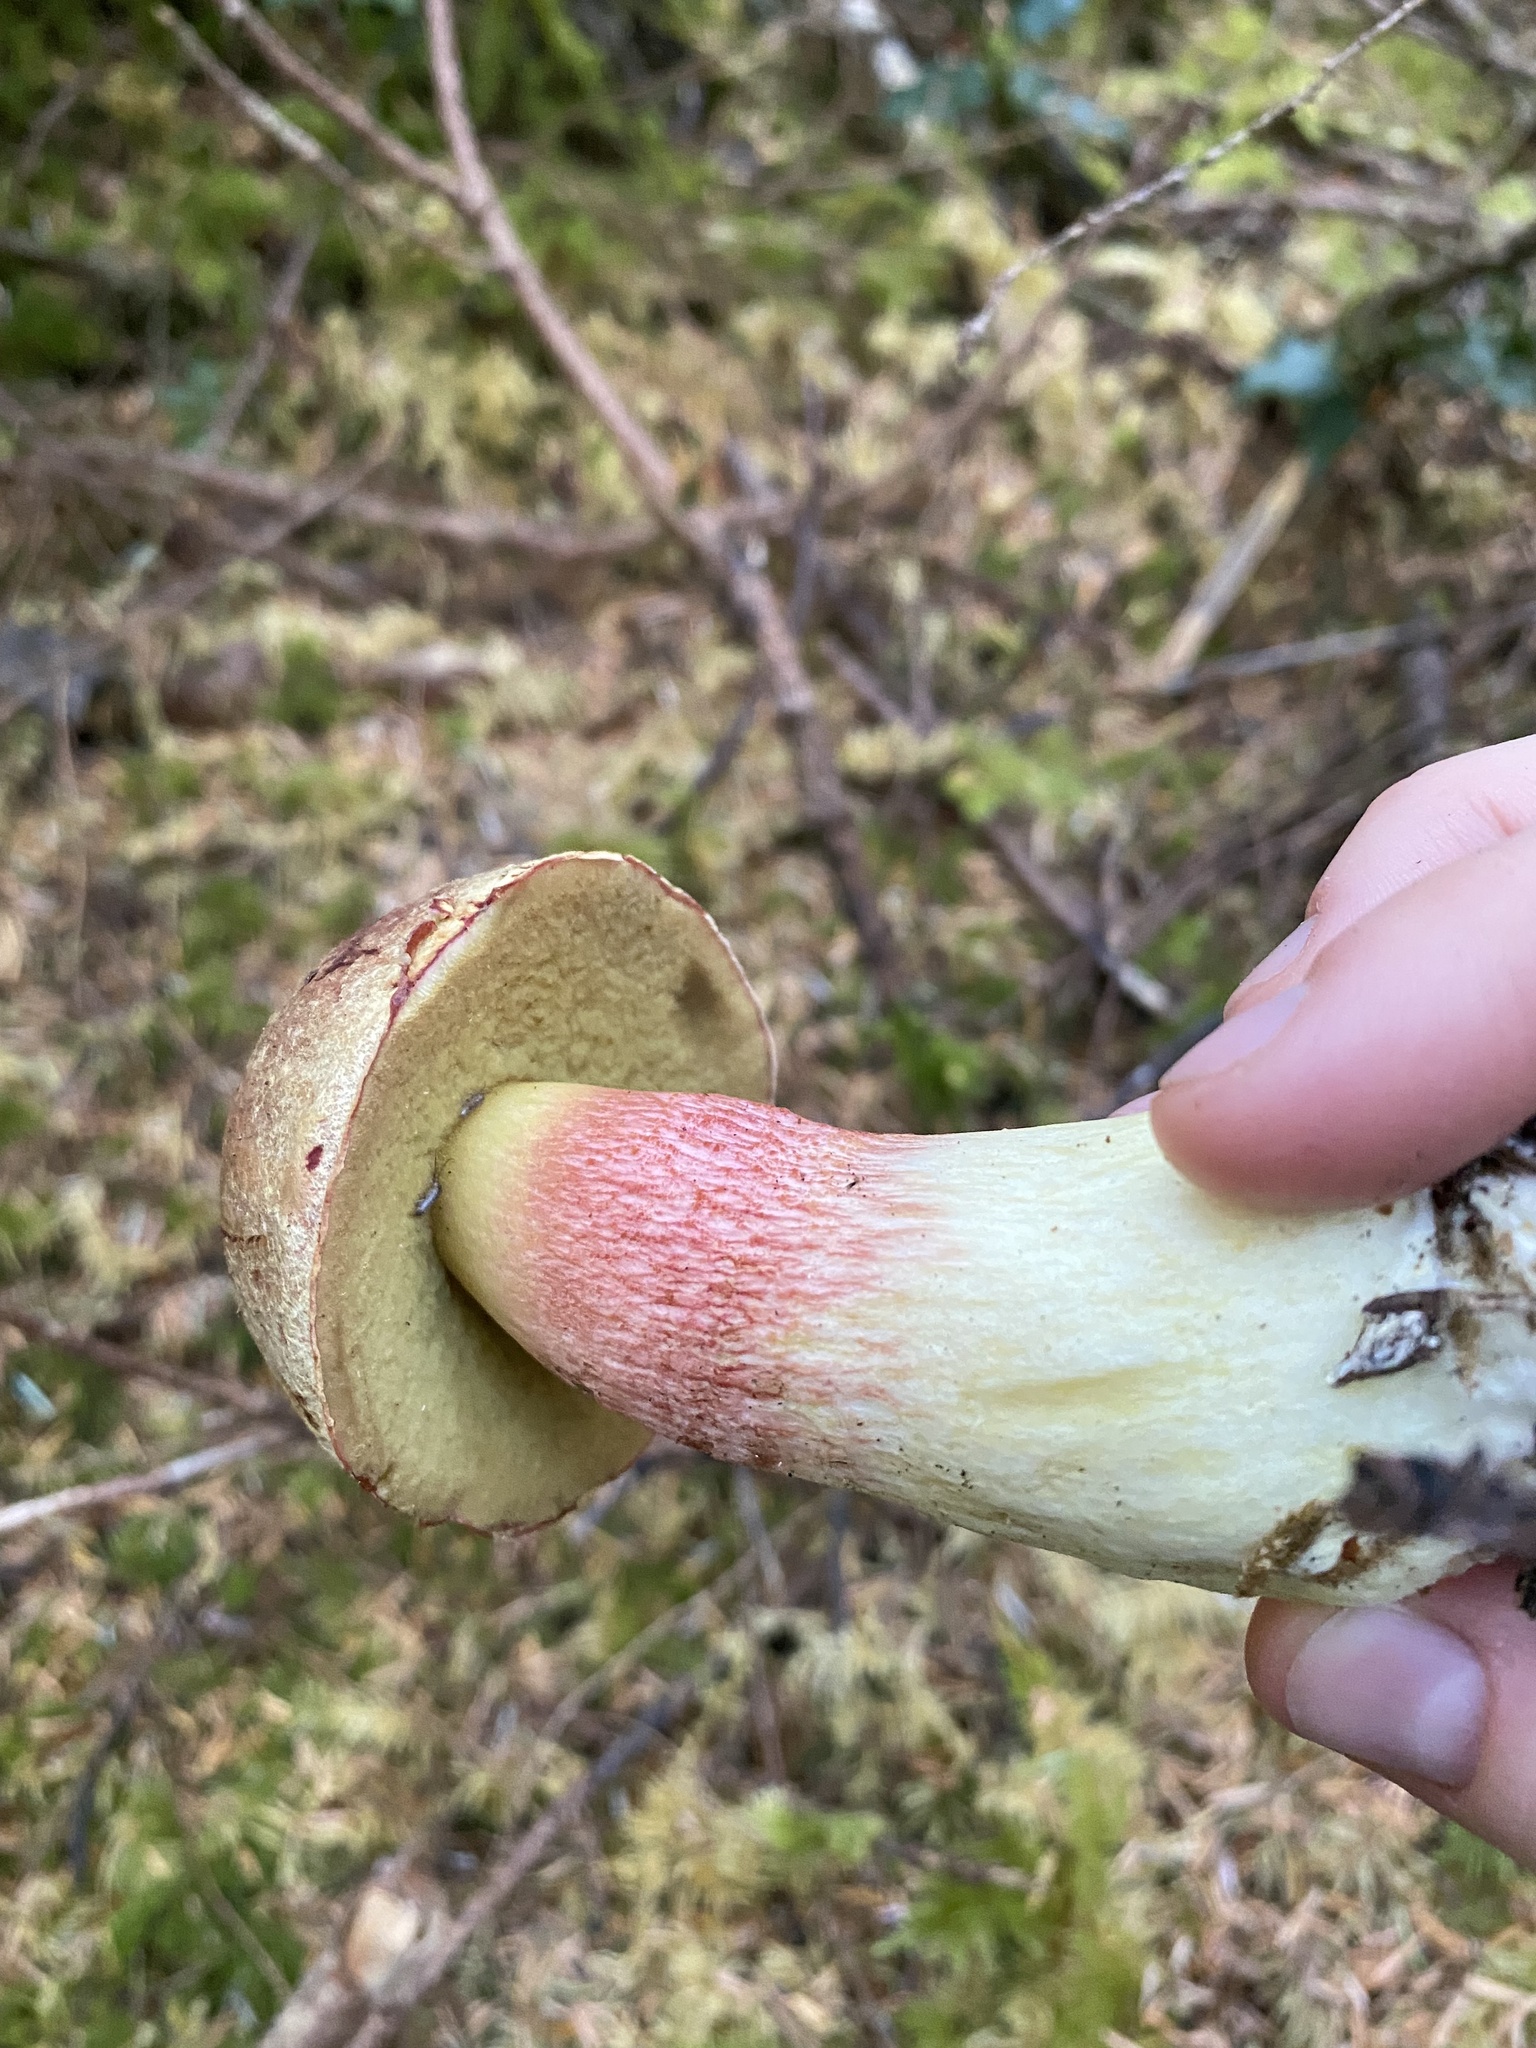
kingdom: Fungi
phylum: Basidiomycota
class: Agaricomycetes
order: Boletales
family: Boletaceae
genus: Boletus
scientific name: Boletus smithii
